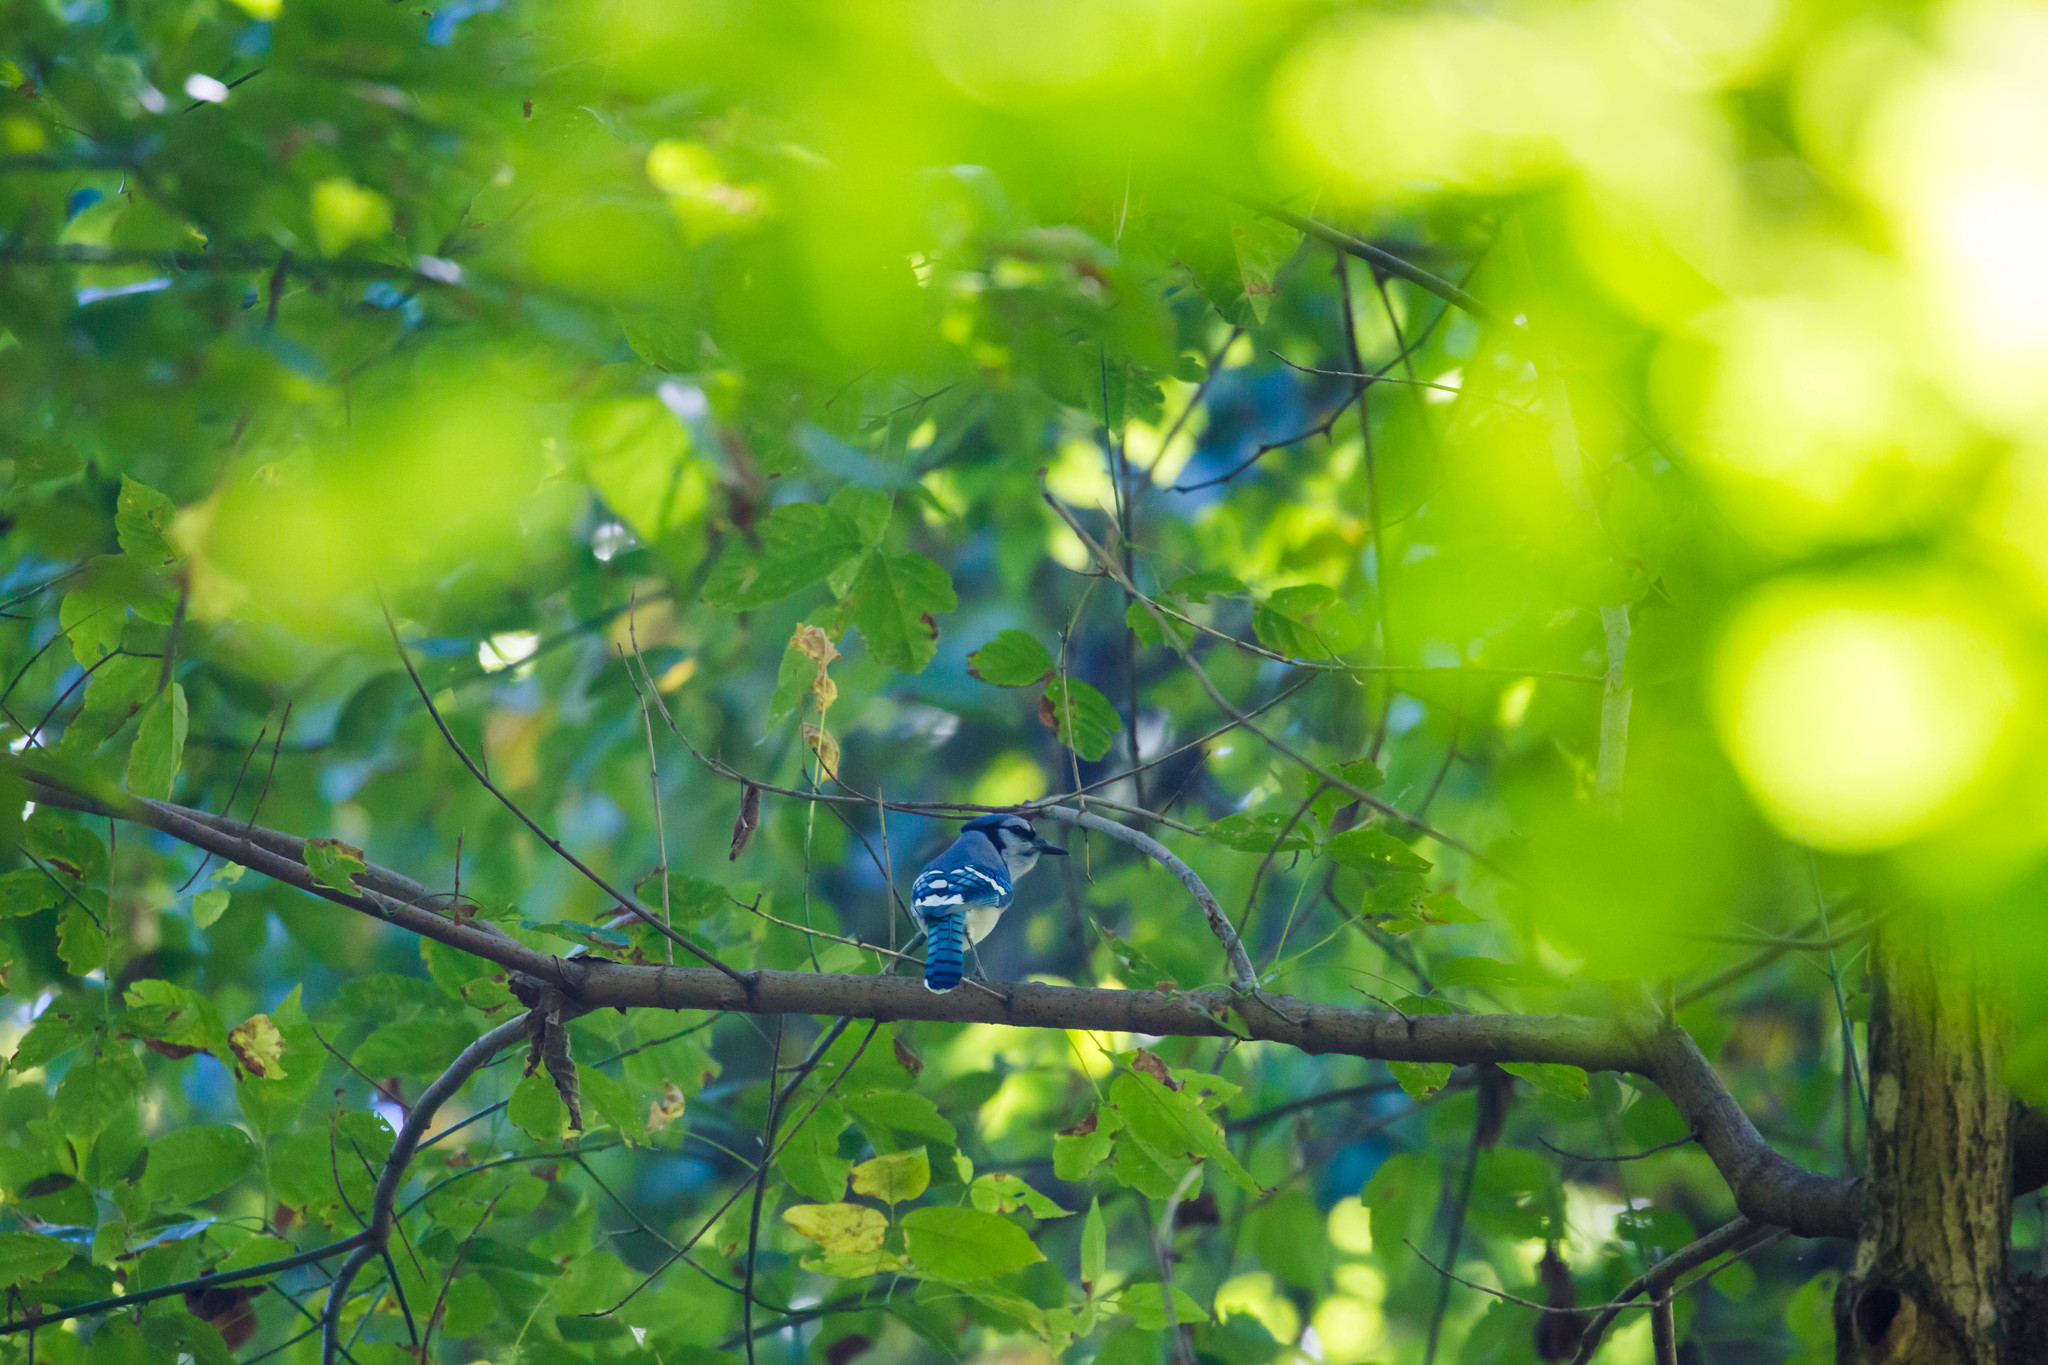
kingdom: Animalia
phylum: Chordata
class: Aves
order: Passeriformes
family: Corvidae
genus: Cyanocitta
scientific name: Cyanocitta cristata
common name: Blue jay
